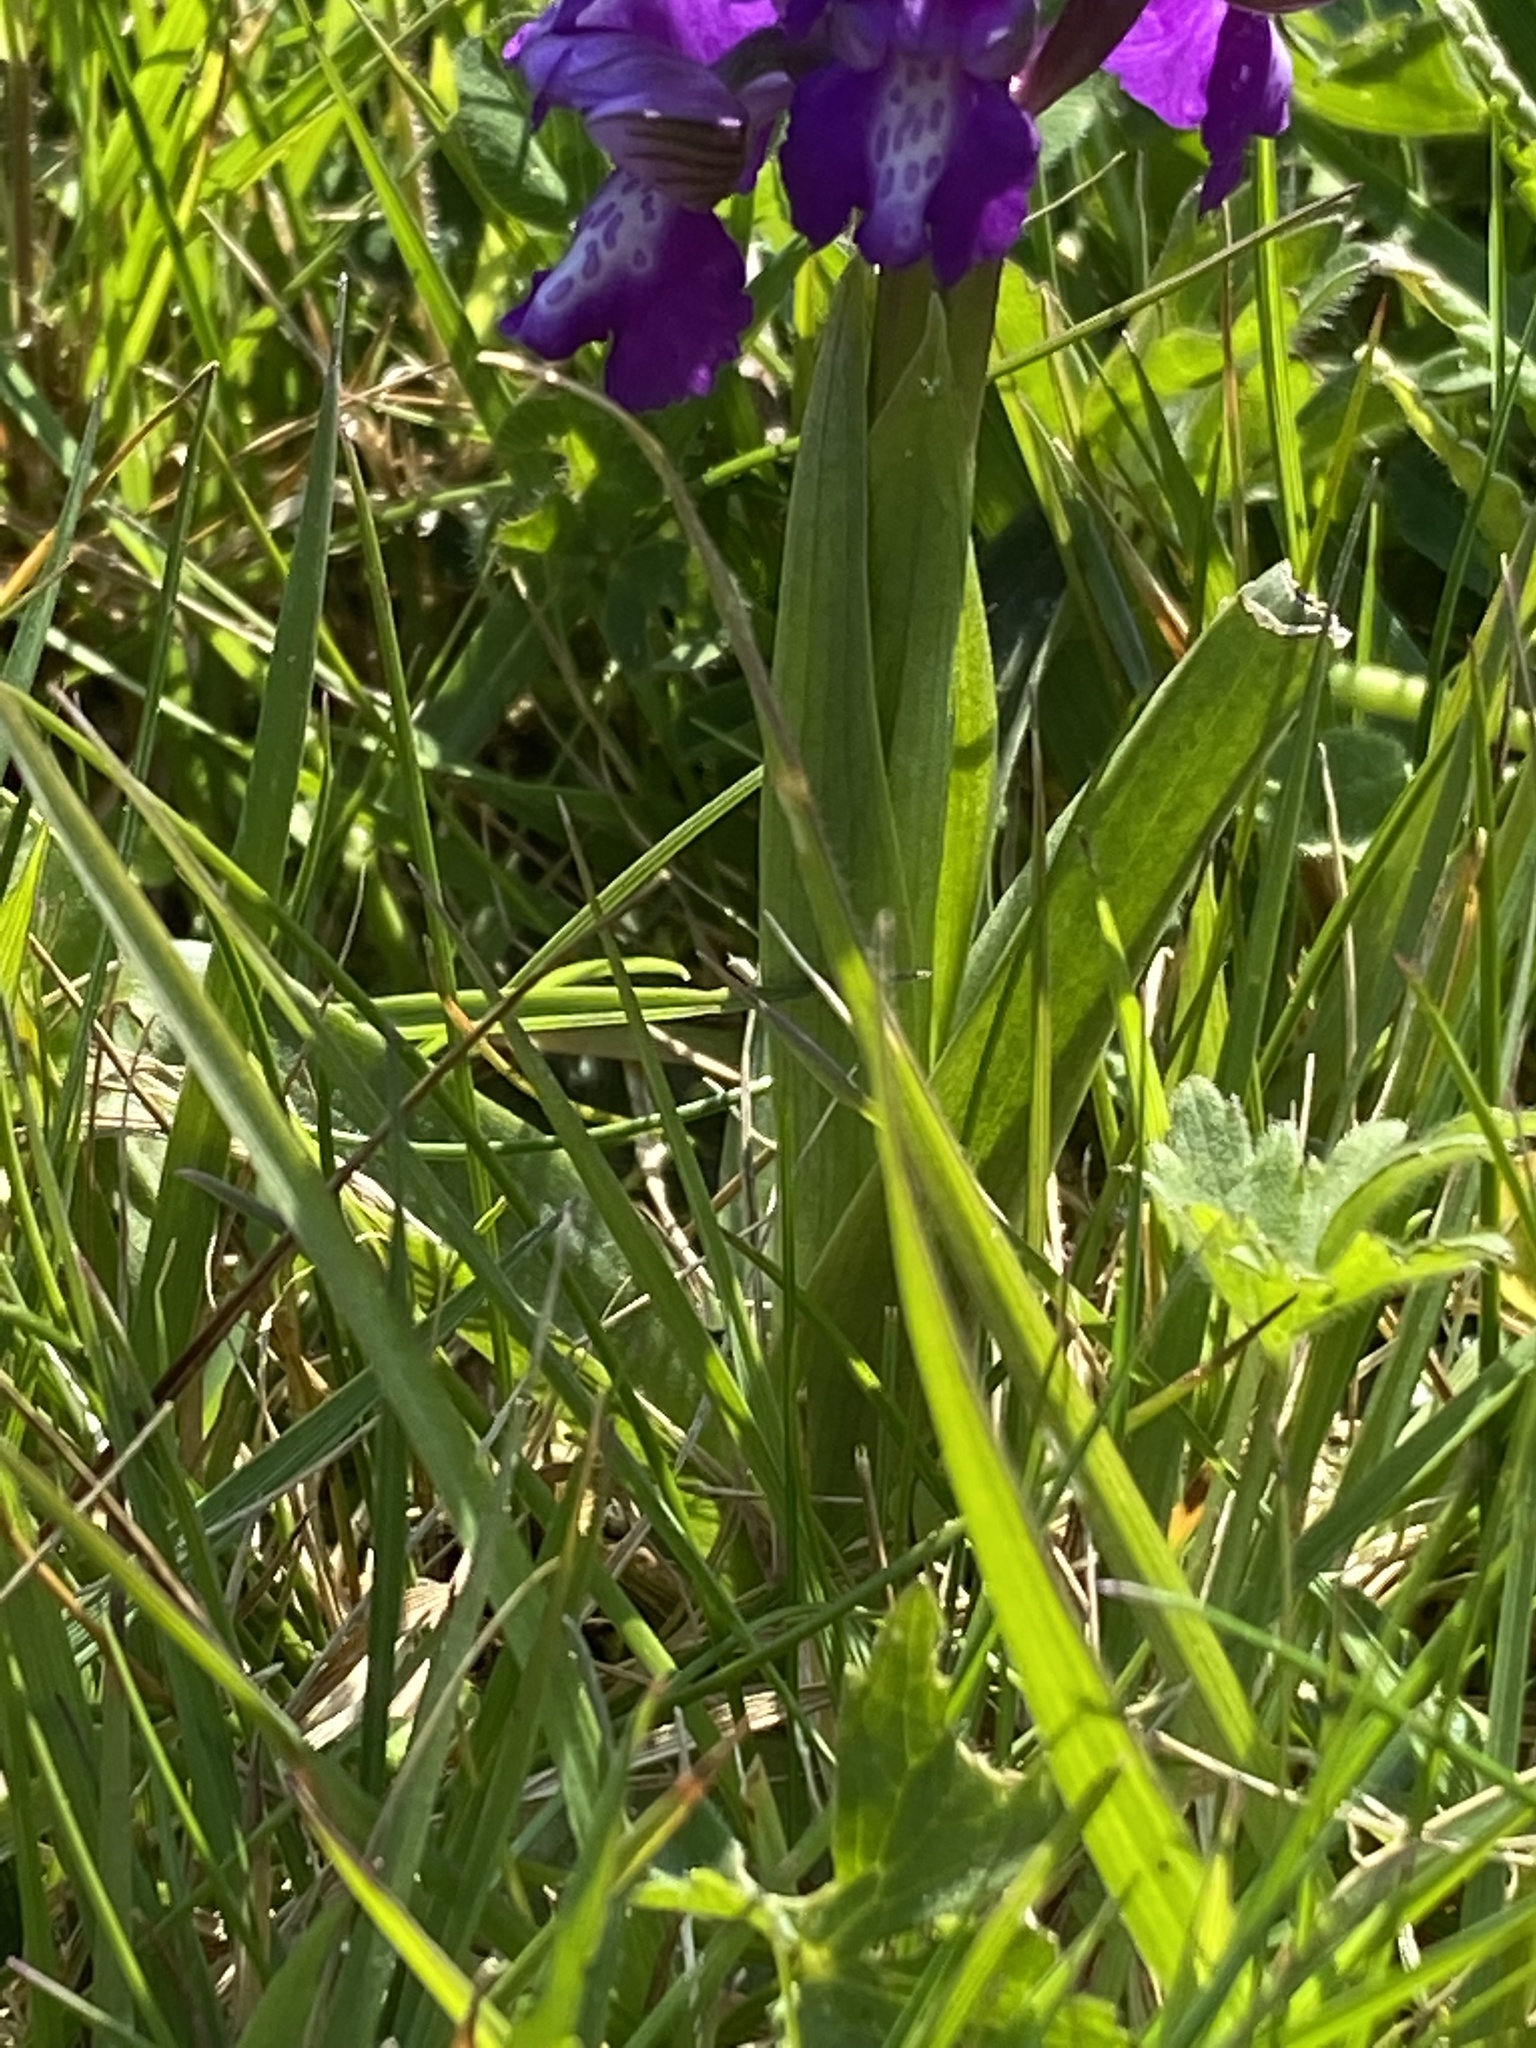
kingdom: Plantae
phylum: Tracheophyta
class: Liliopsida
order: Asparagales
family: Orchidaceae
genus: Anacamptis
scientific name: Anacamptis morio
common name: Green-winged orchid
